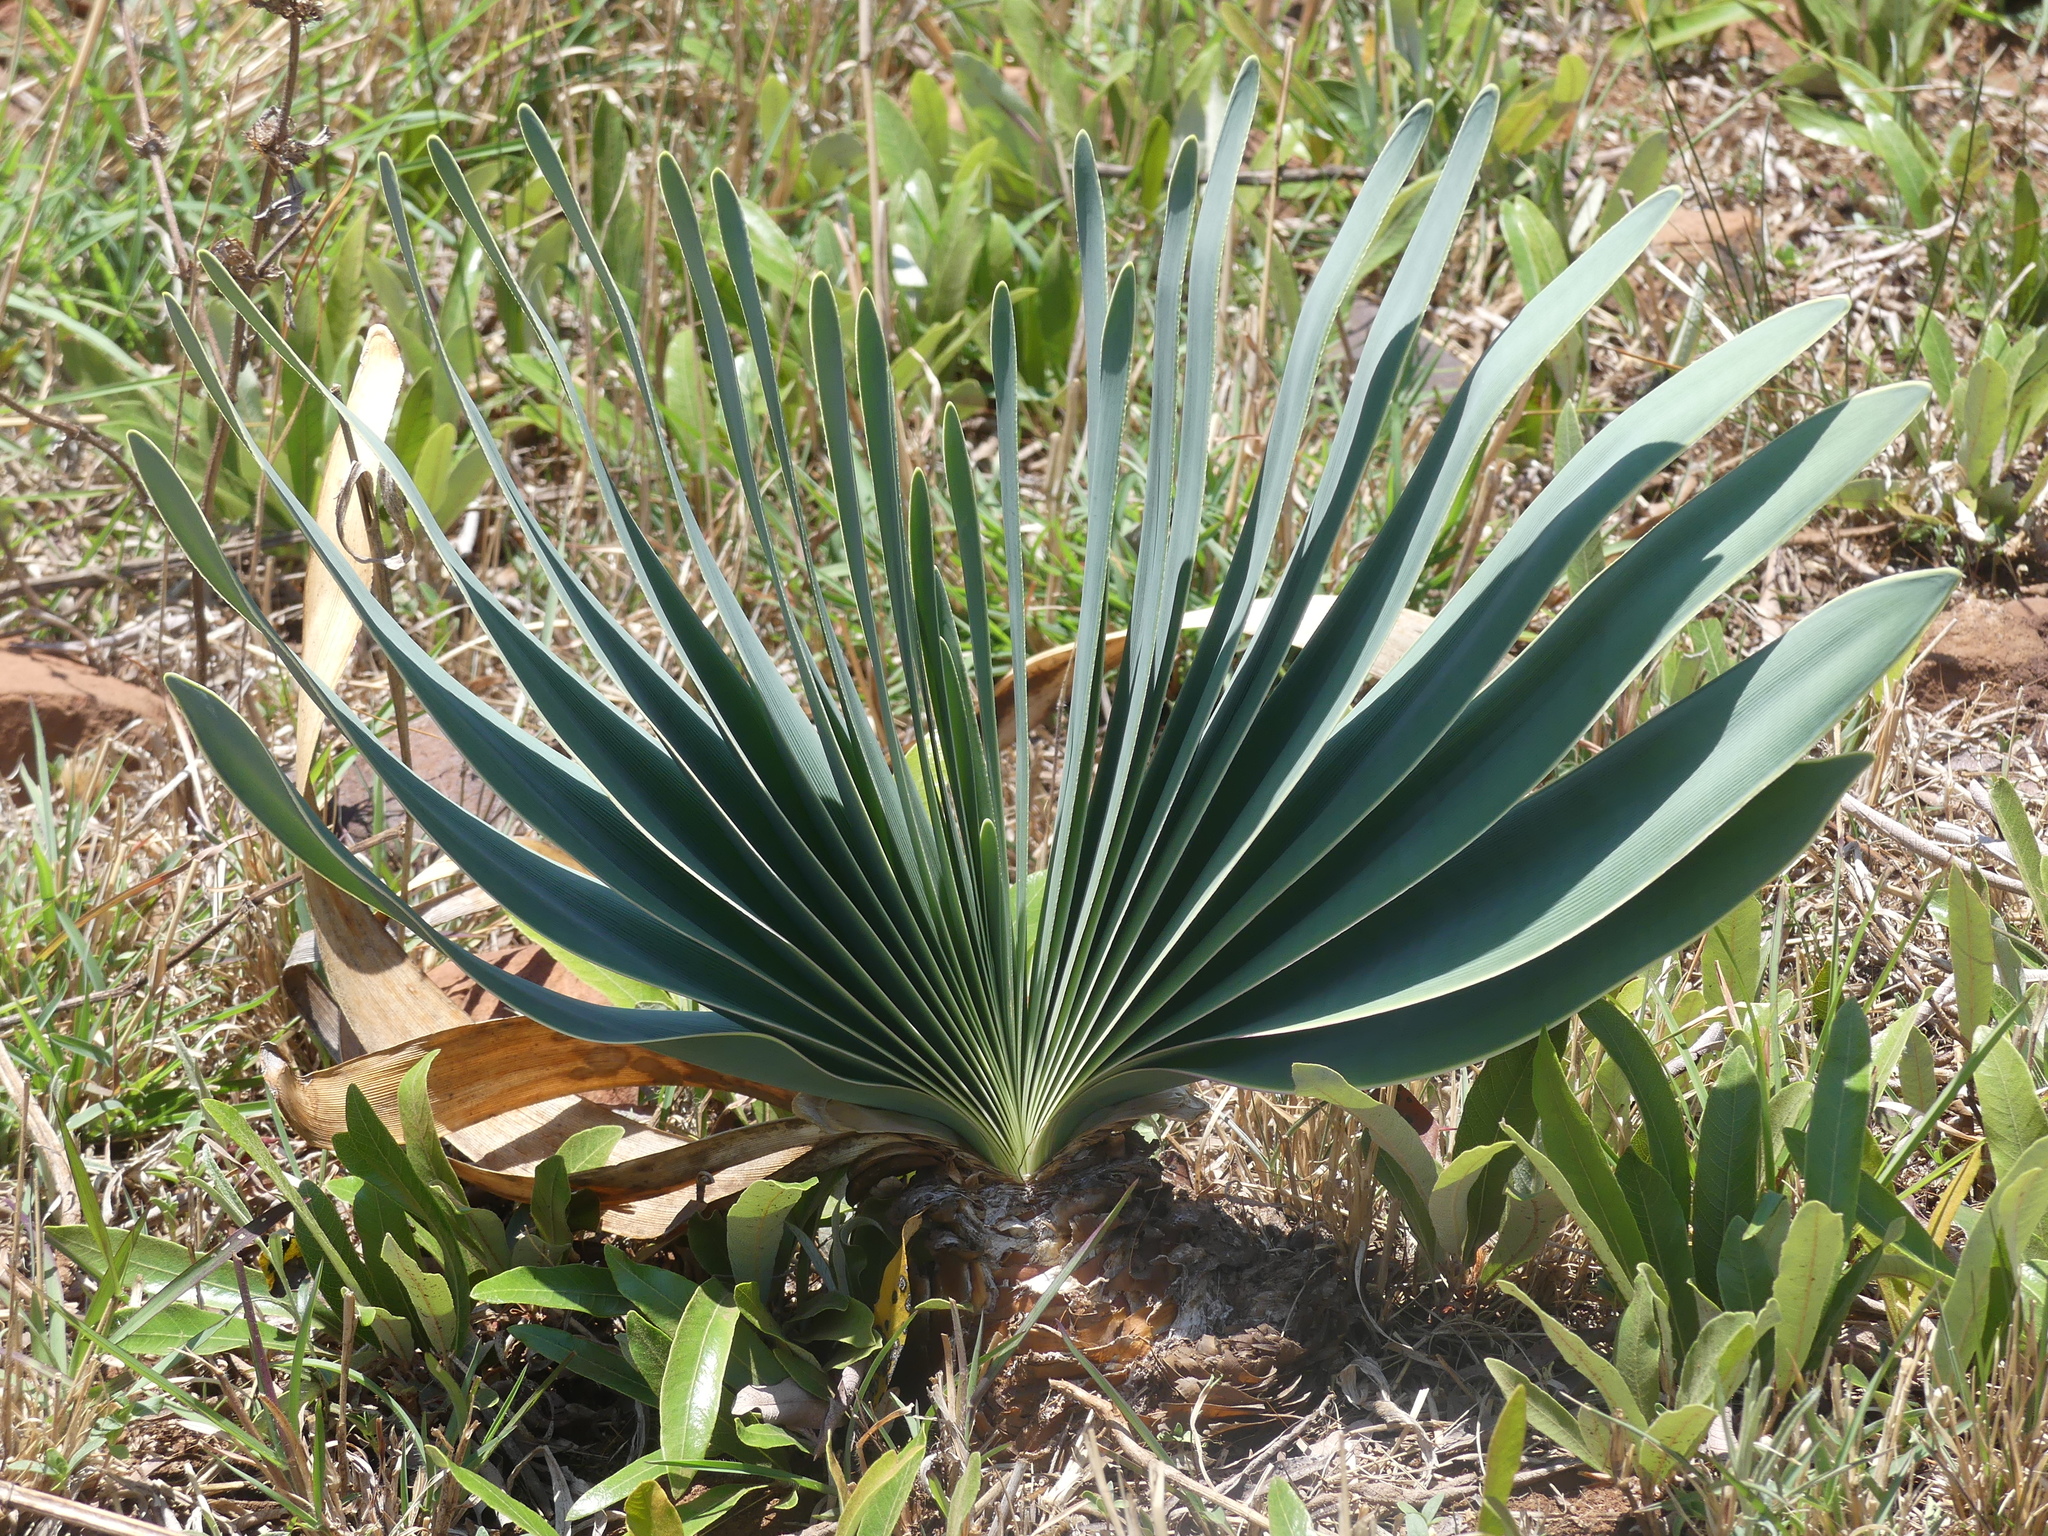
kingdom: Plantae
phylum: Tracheophyta
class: Liliopsida
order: Asparagales
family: Amaryllidaceae
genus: Boophone
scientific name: Boophone disticha
